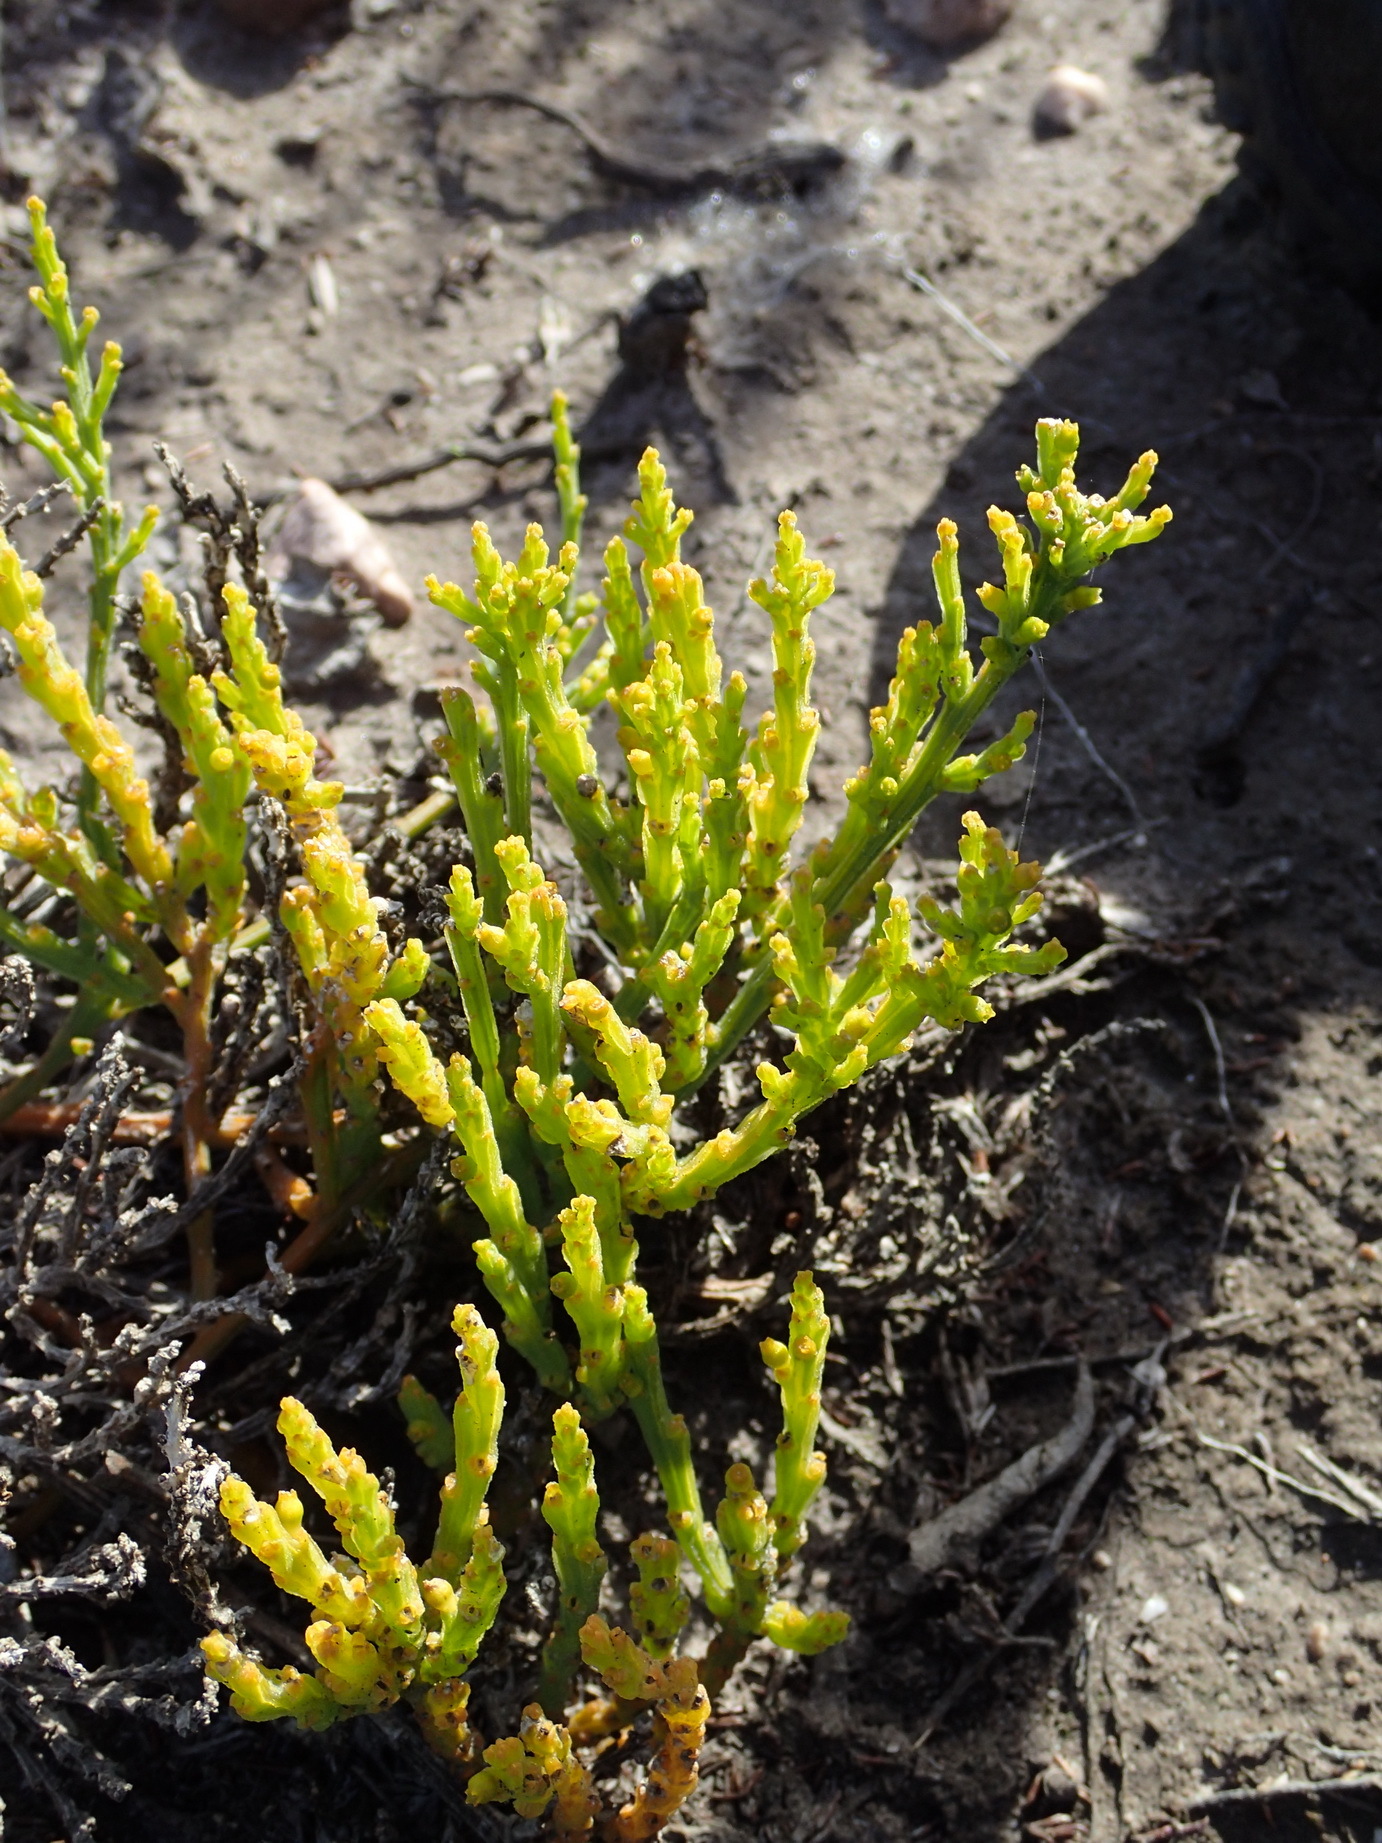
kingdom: Plantae
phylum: Tracheophyta
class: Magnoliopsida
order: Santalales
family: Thesiaceae
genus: Thesium
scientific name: Thesium fragile
